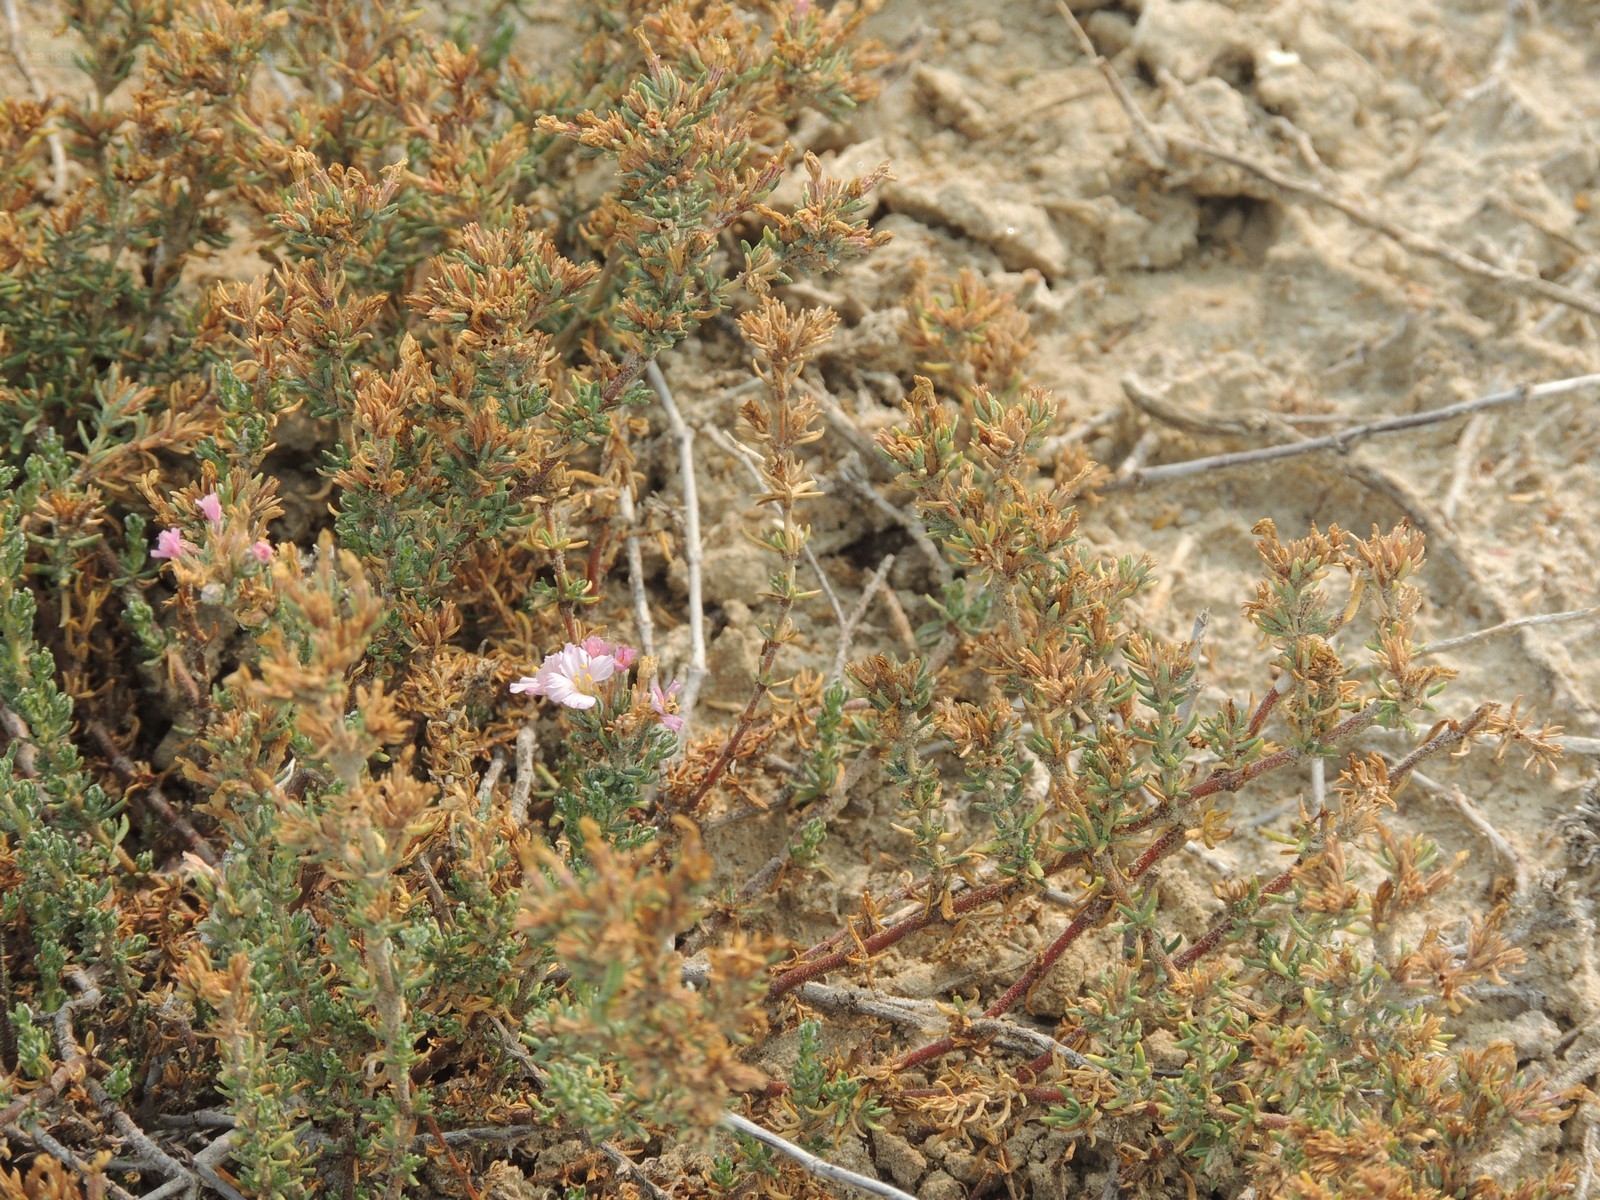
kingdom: Plantae
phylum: Tracheophyta
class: Magnoliopsida
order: Caryophyllales
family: Frankeniaceae
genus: Frankenia
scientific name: Frankenia hirsuta
